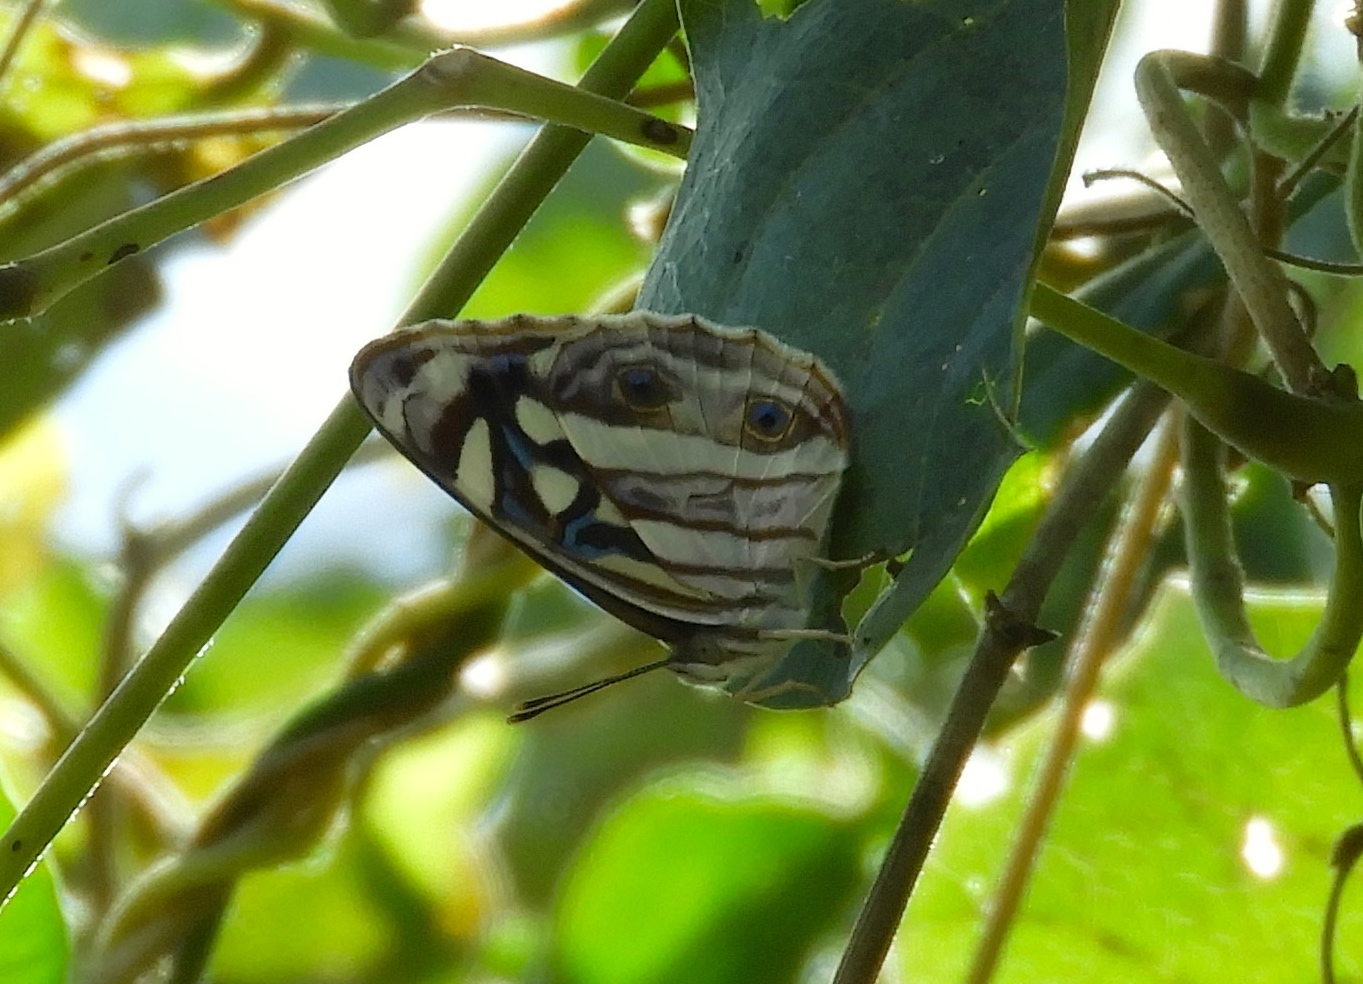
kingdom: Animalia
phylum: Arthropoda
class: Insecta
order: Lepidoptera
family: Nymphalidae
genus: Dynamine
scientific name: Dynamine mylitta
